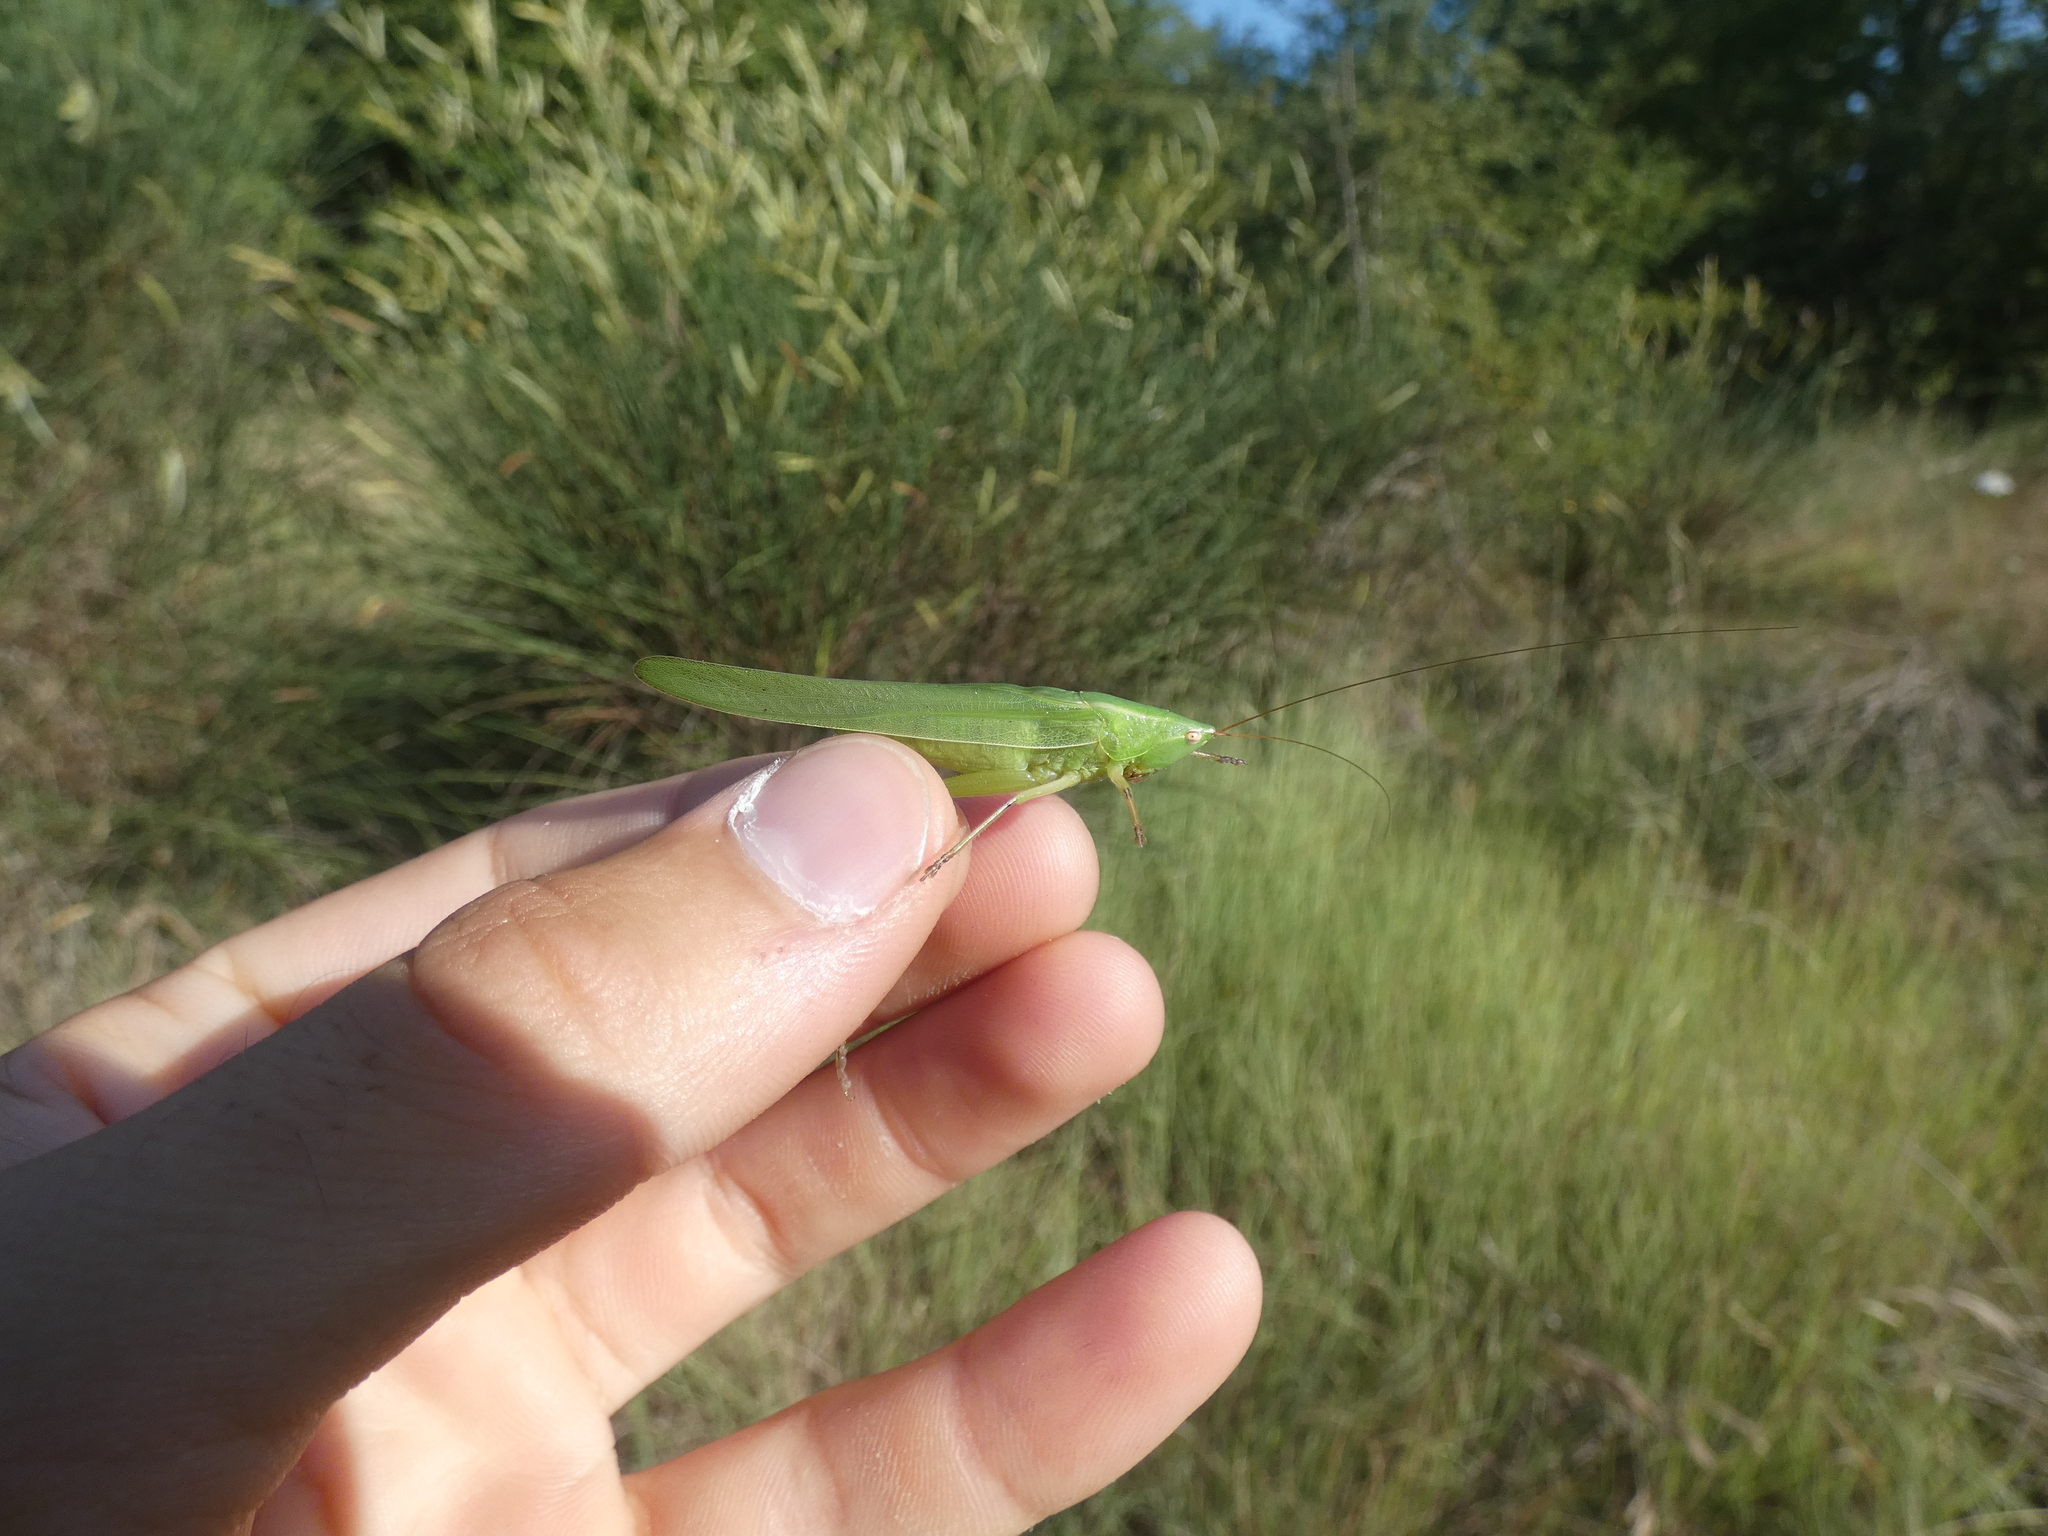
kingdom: Animalia
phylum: Arthropoda
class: Insecta
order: Orthoptera
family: Tettigoniidae
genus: Ruspolia
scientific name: Ruspolia nitidula
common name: Large conehead
